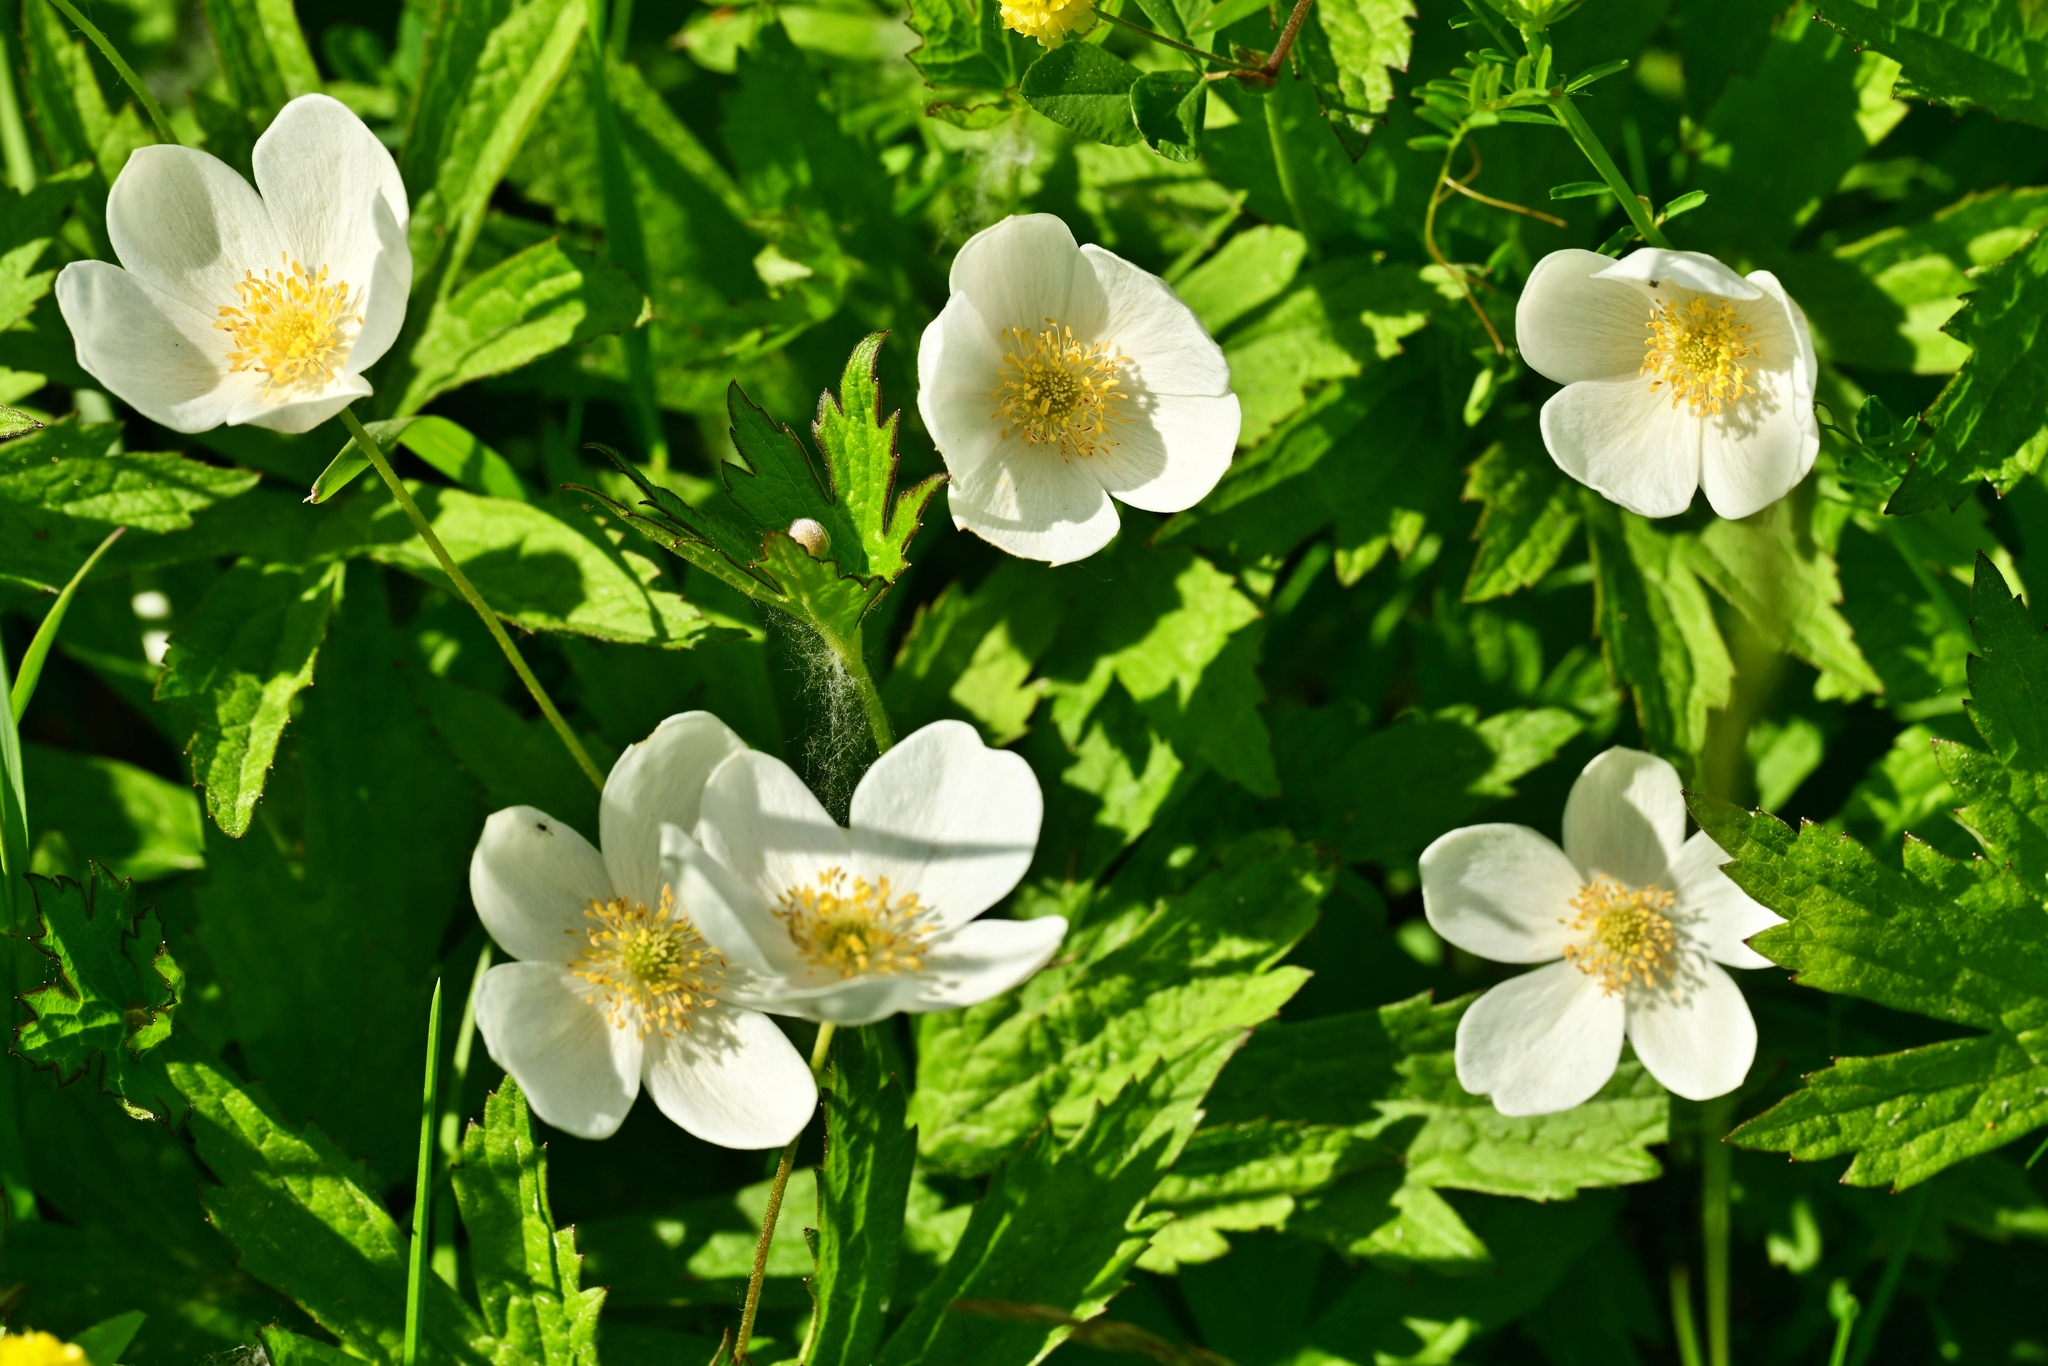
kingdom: Plantae
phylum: Tracheophyta
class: Magnoliopsida
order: Ranunculales
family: Ranunculaceae
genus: Anemonastrum
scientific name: Anemonastrum canadense
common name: Canada anemone
